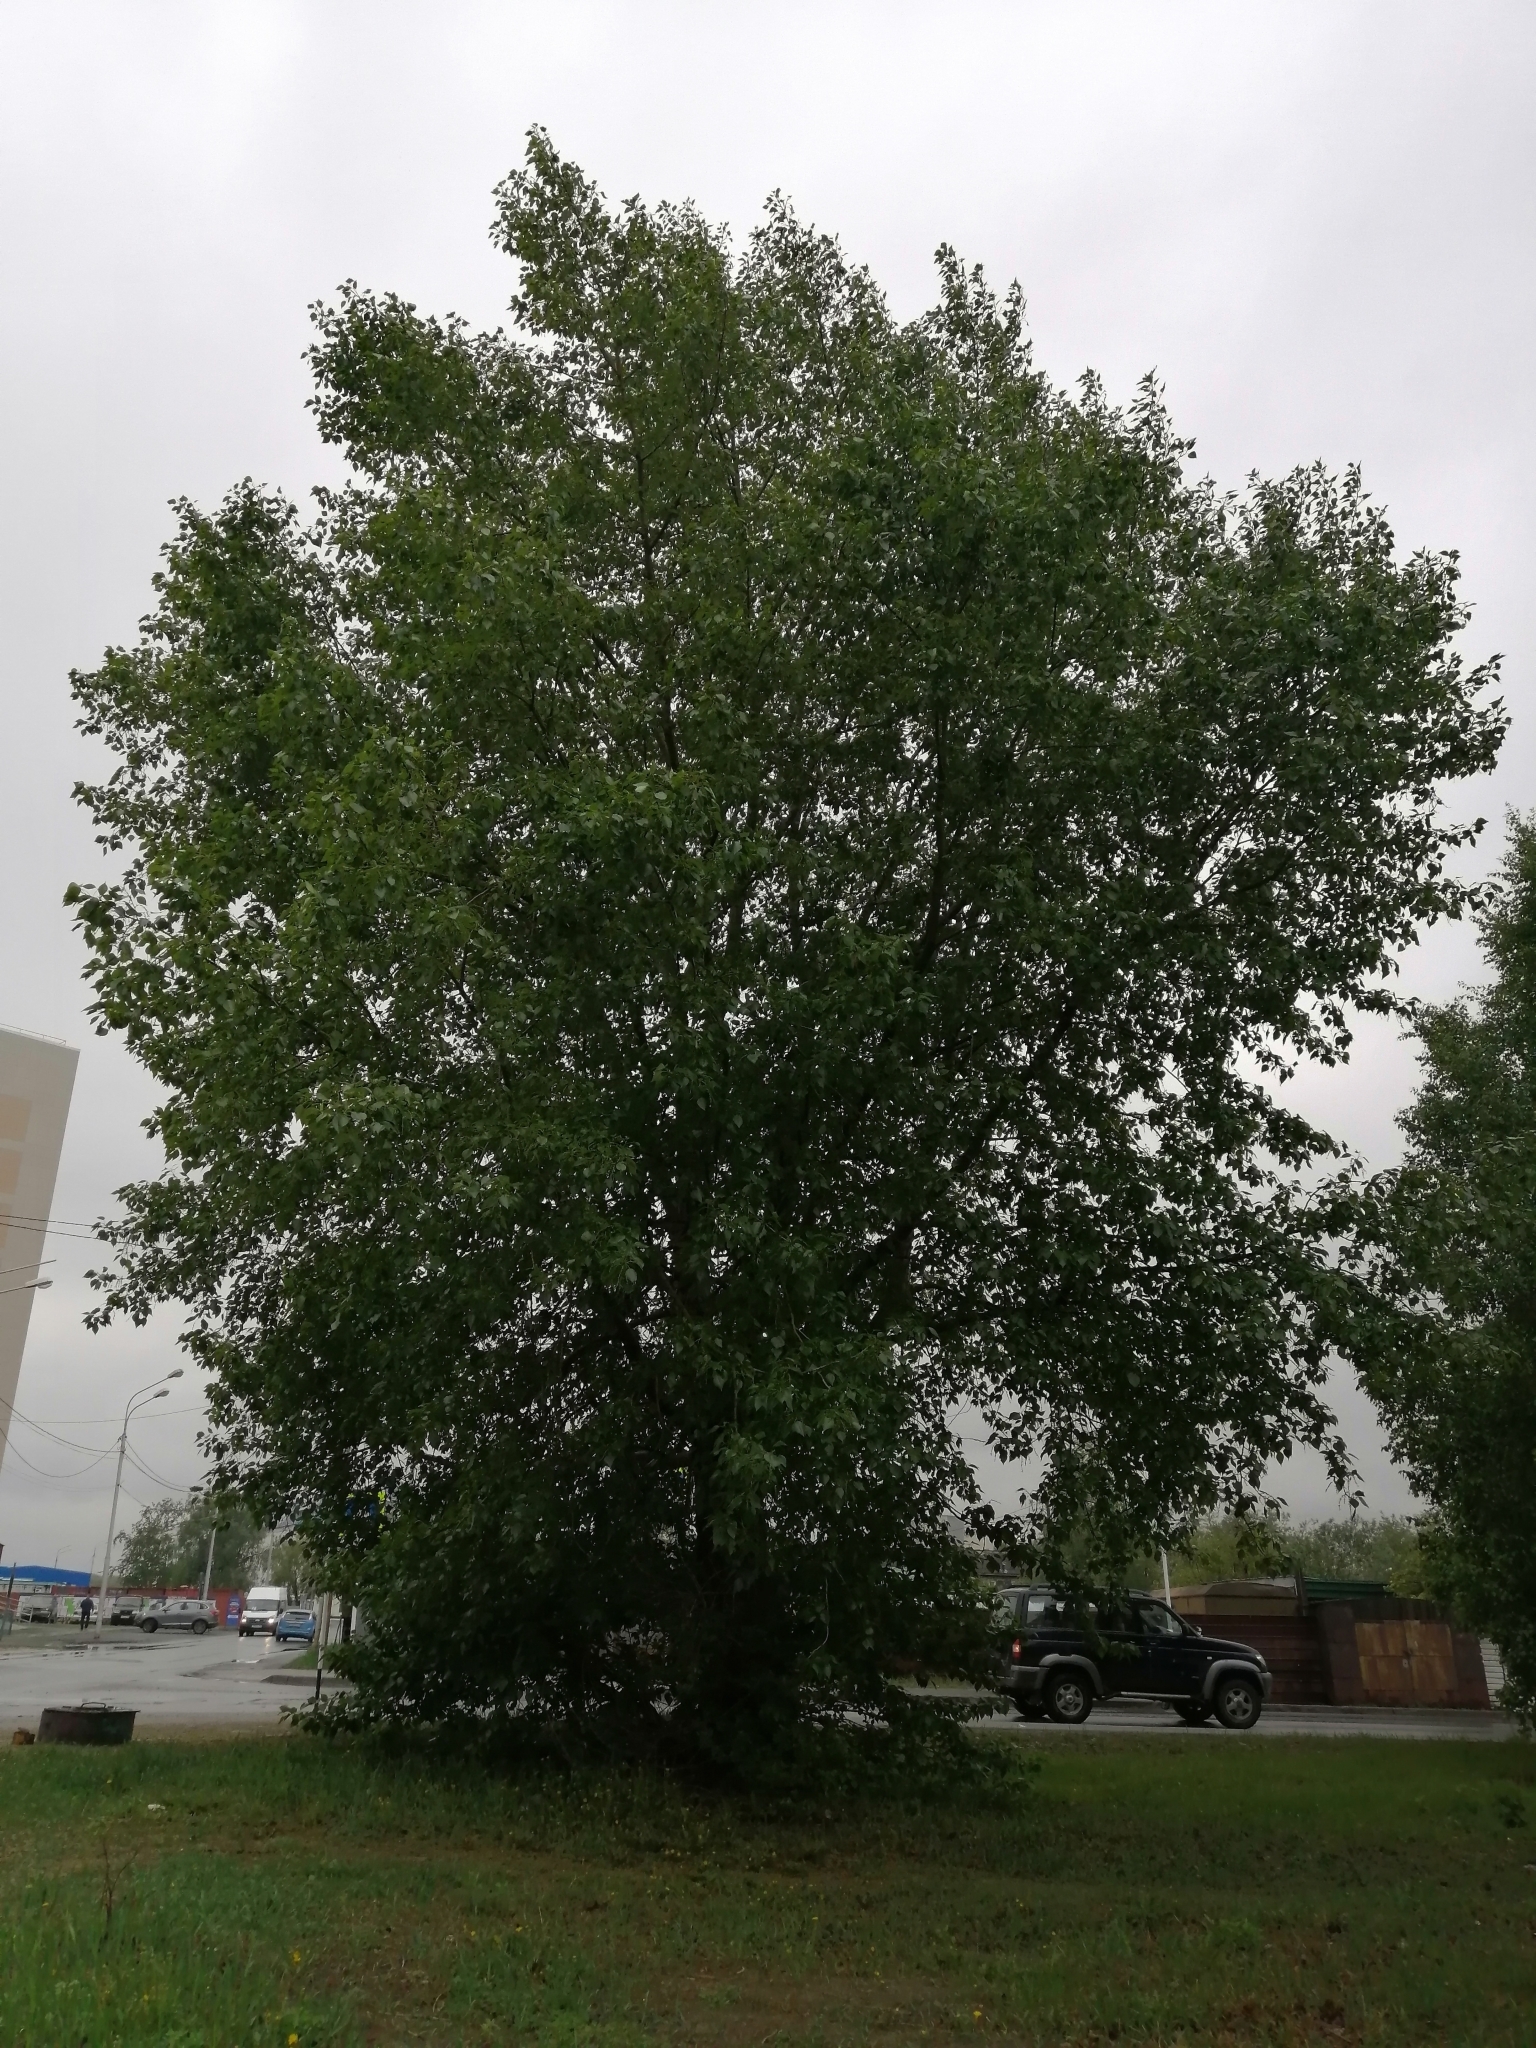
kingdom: Plantae
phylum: Tracheophyta
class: Magnoliopsida
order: Malpighiales
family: Salicaceae
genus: Populus
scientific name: Populus sibirica
